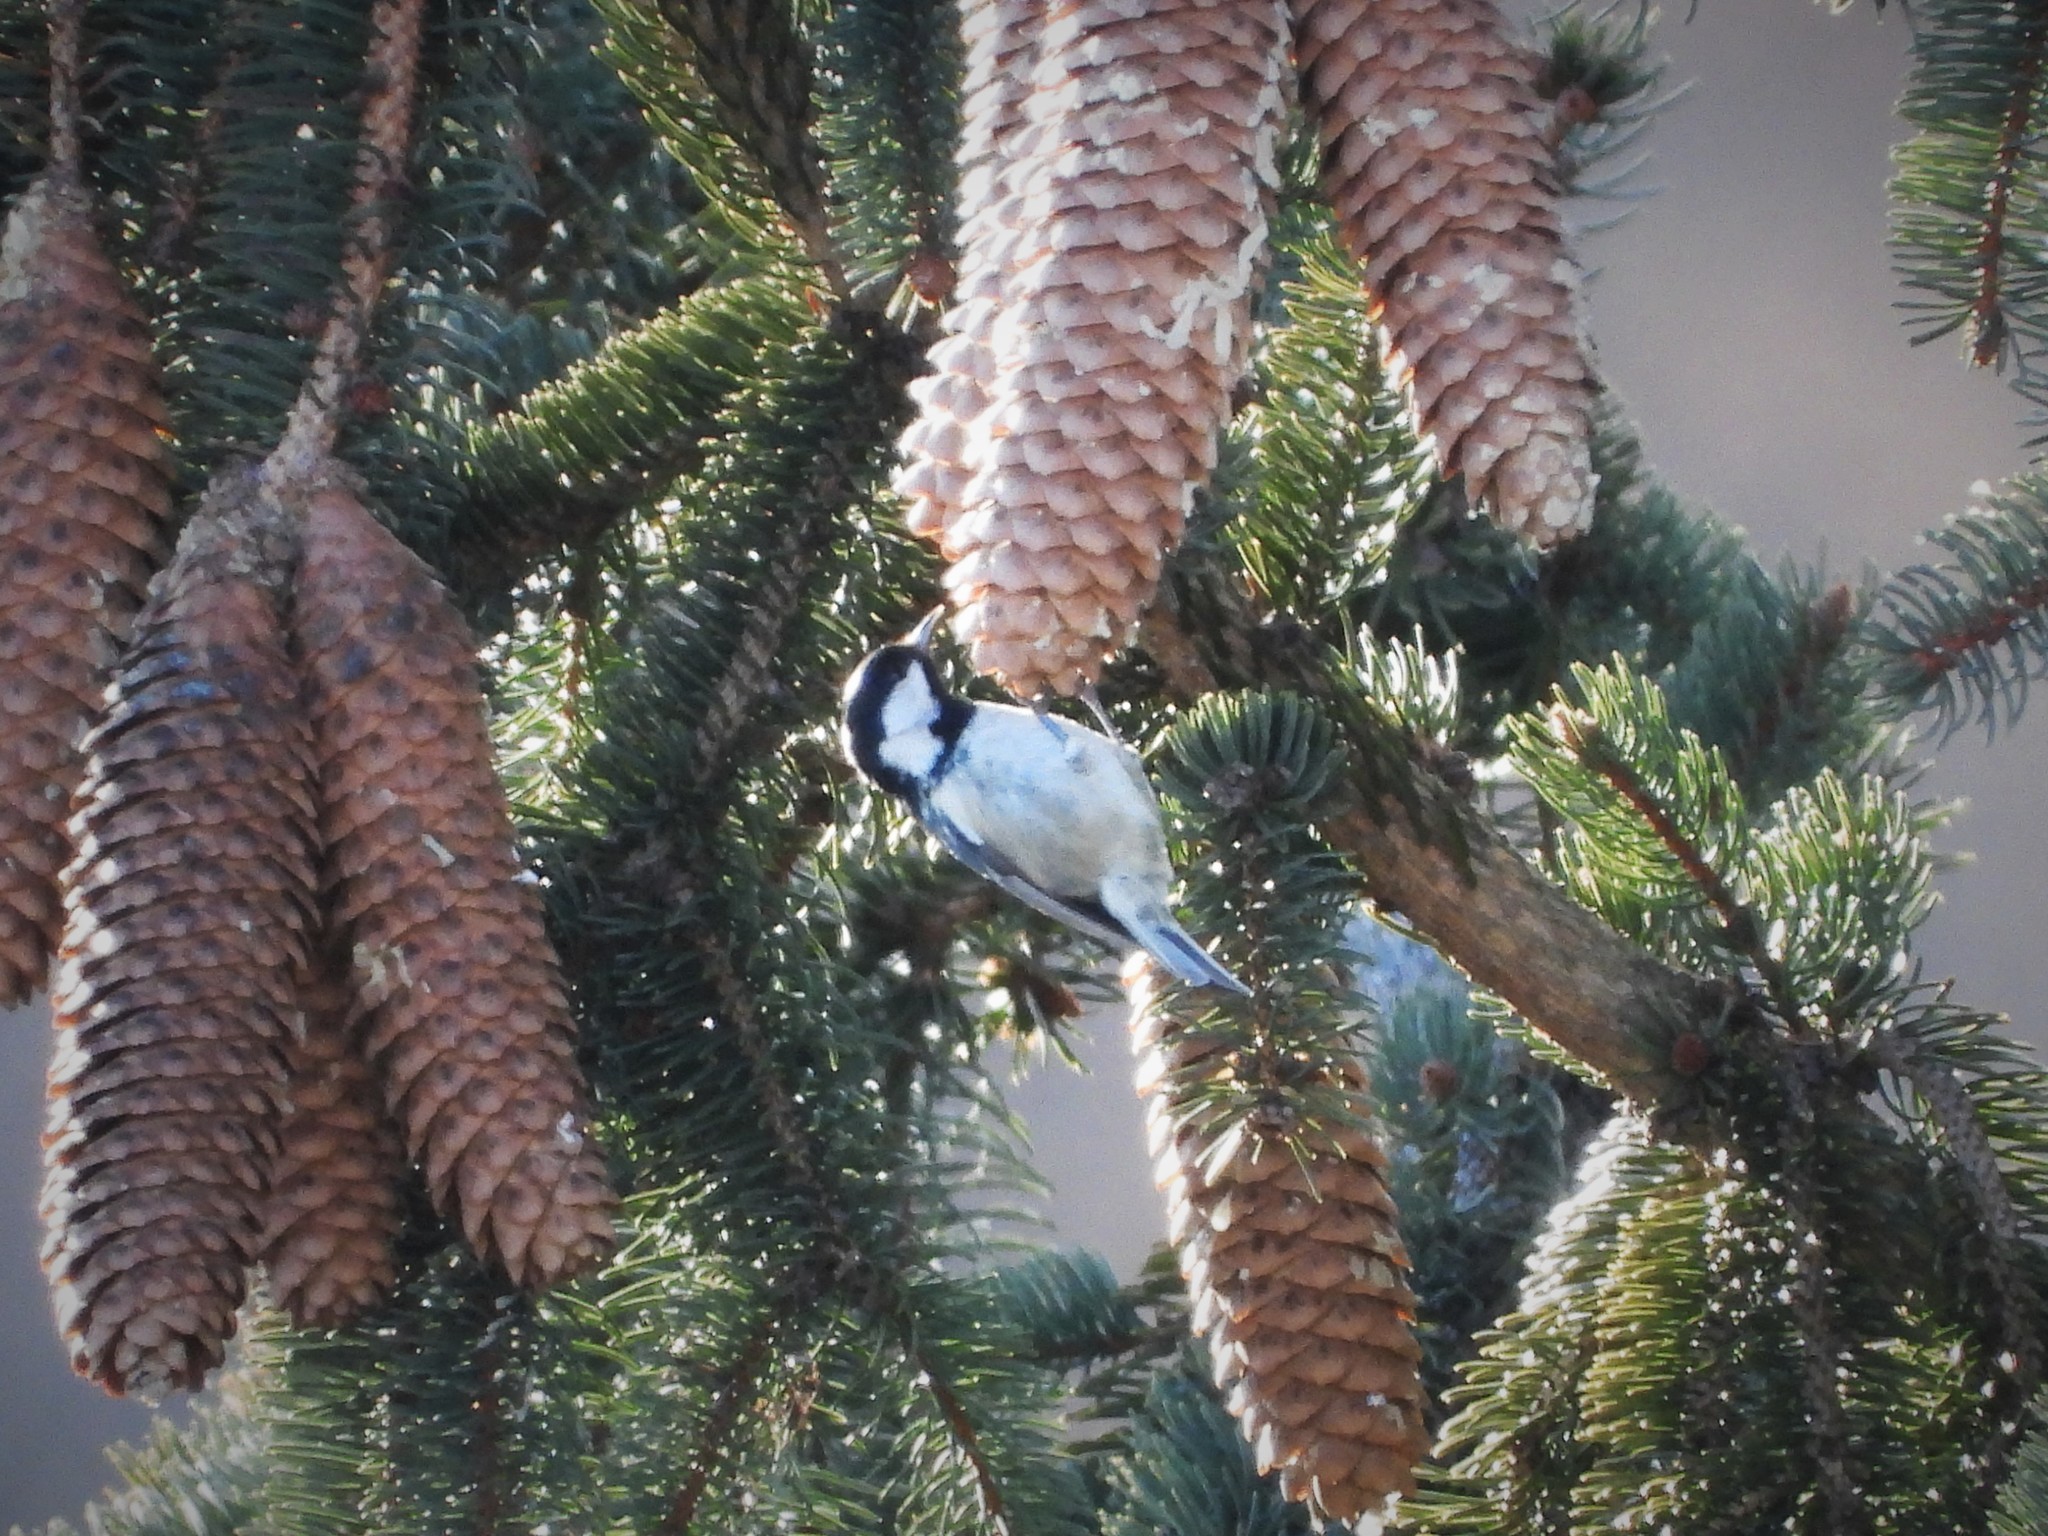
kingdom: Animalia
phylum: Chordata
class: Aves
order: Passeriformes
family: Paridae
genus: Periparus
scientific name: Periparus ater
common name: Coal tit
